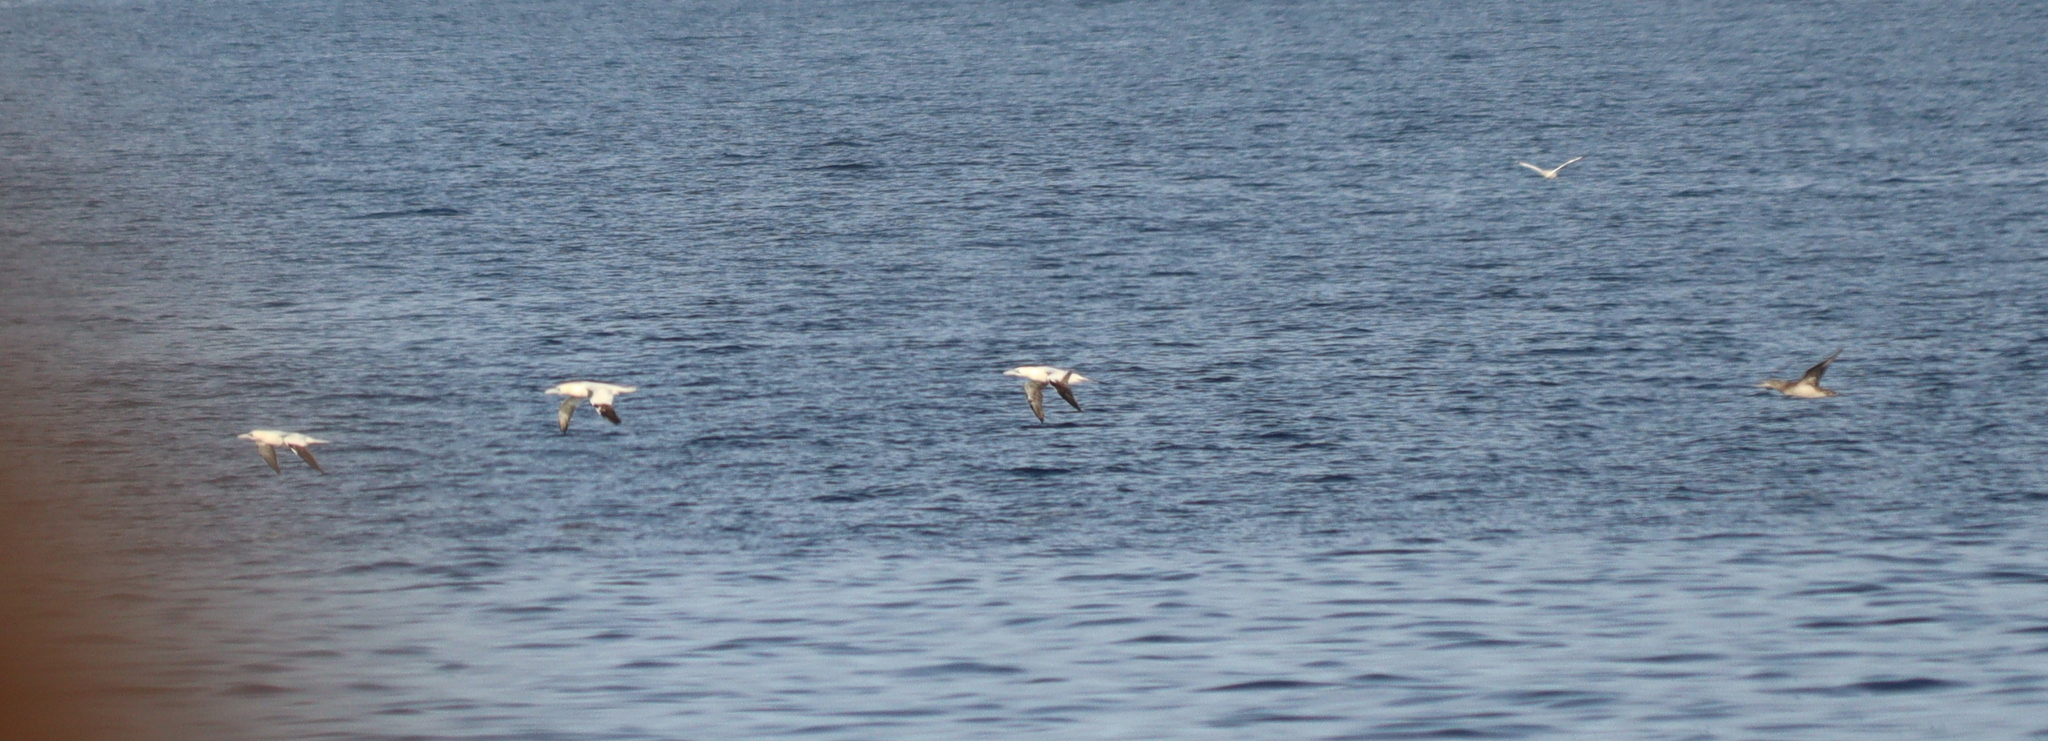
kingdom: Animalia
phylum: Chordata
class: Aves
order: Suliformes
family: Sulidae
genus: Morus
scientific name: Morus bassanus
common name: Northern gannet
